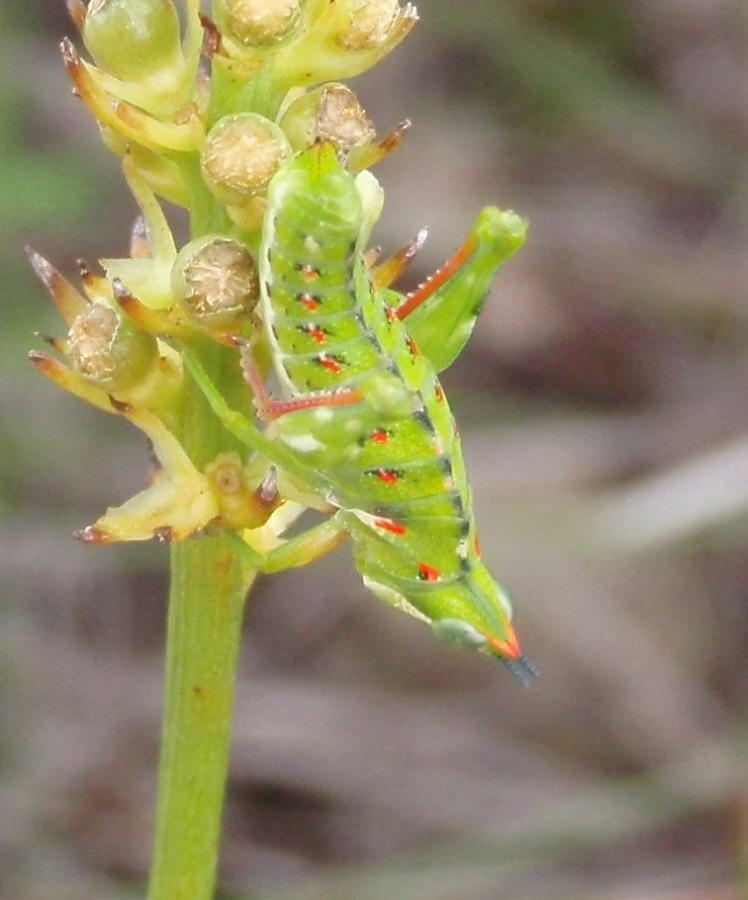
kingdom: Animalia
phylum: Arthropoda
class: Insecta
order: Orthoptera
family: Thericleidae
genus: Thericlesiella
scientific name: Thericlesiella meridionalis
